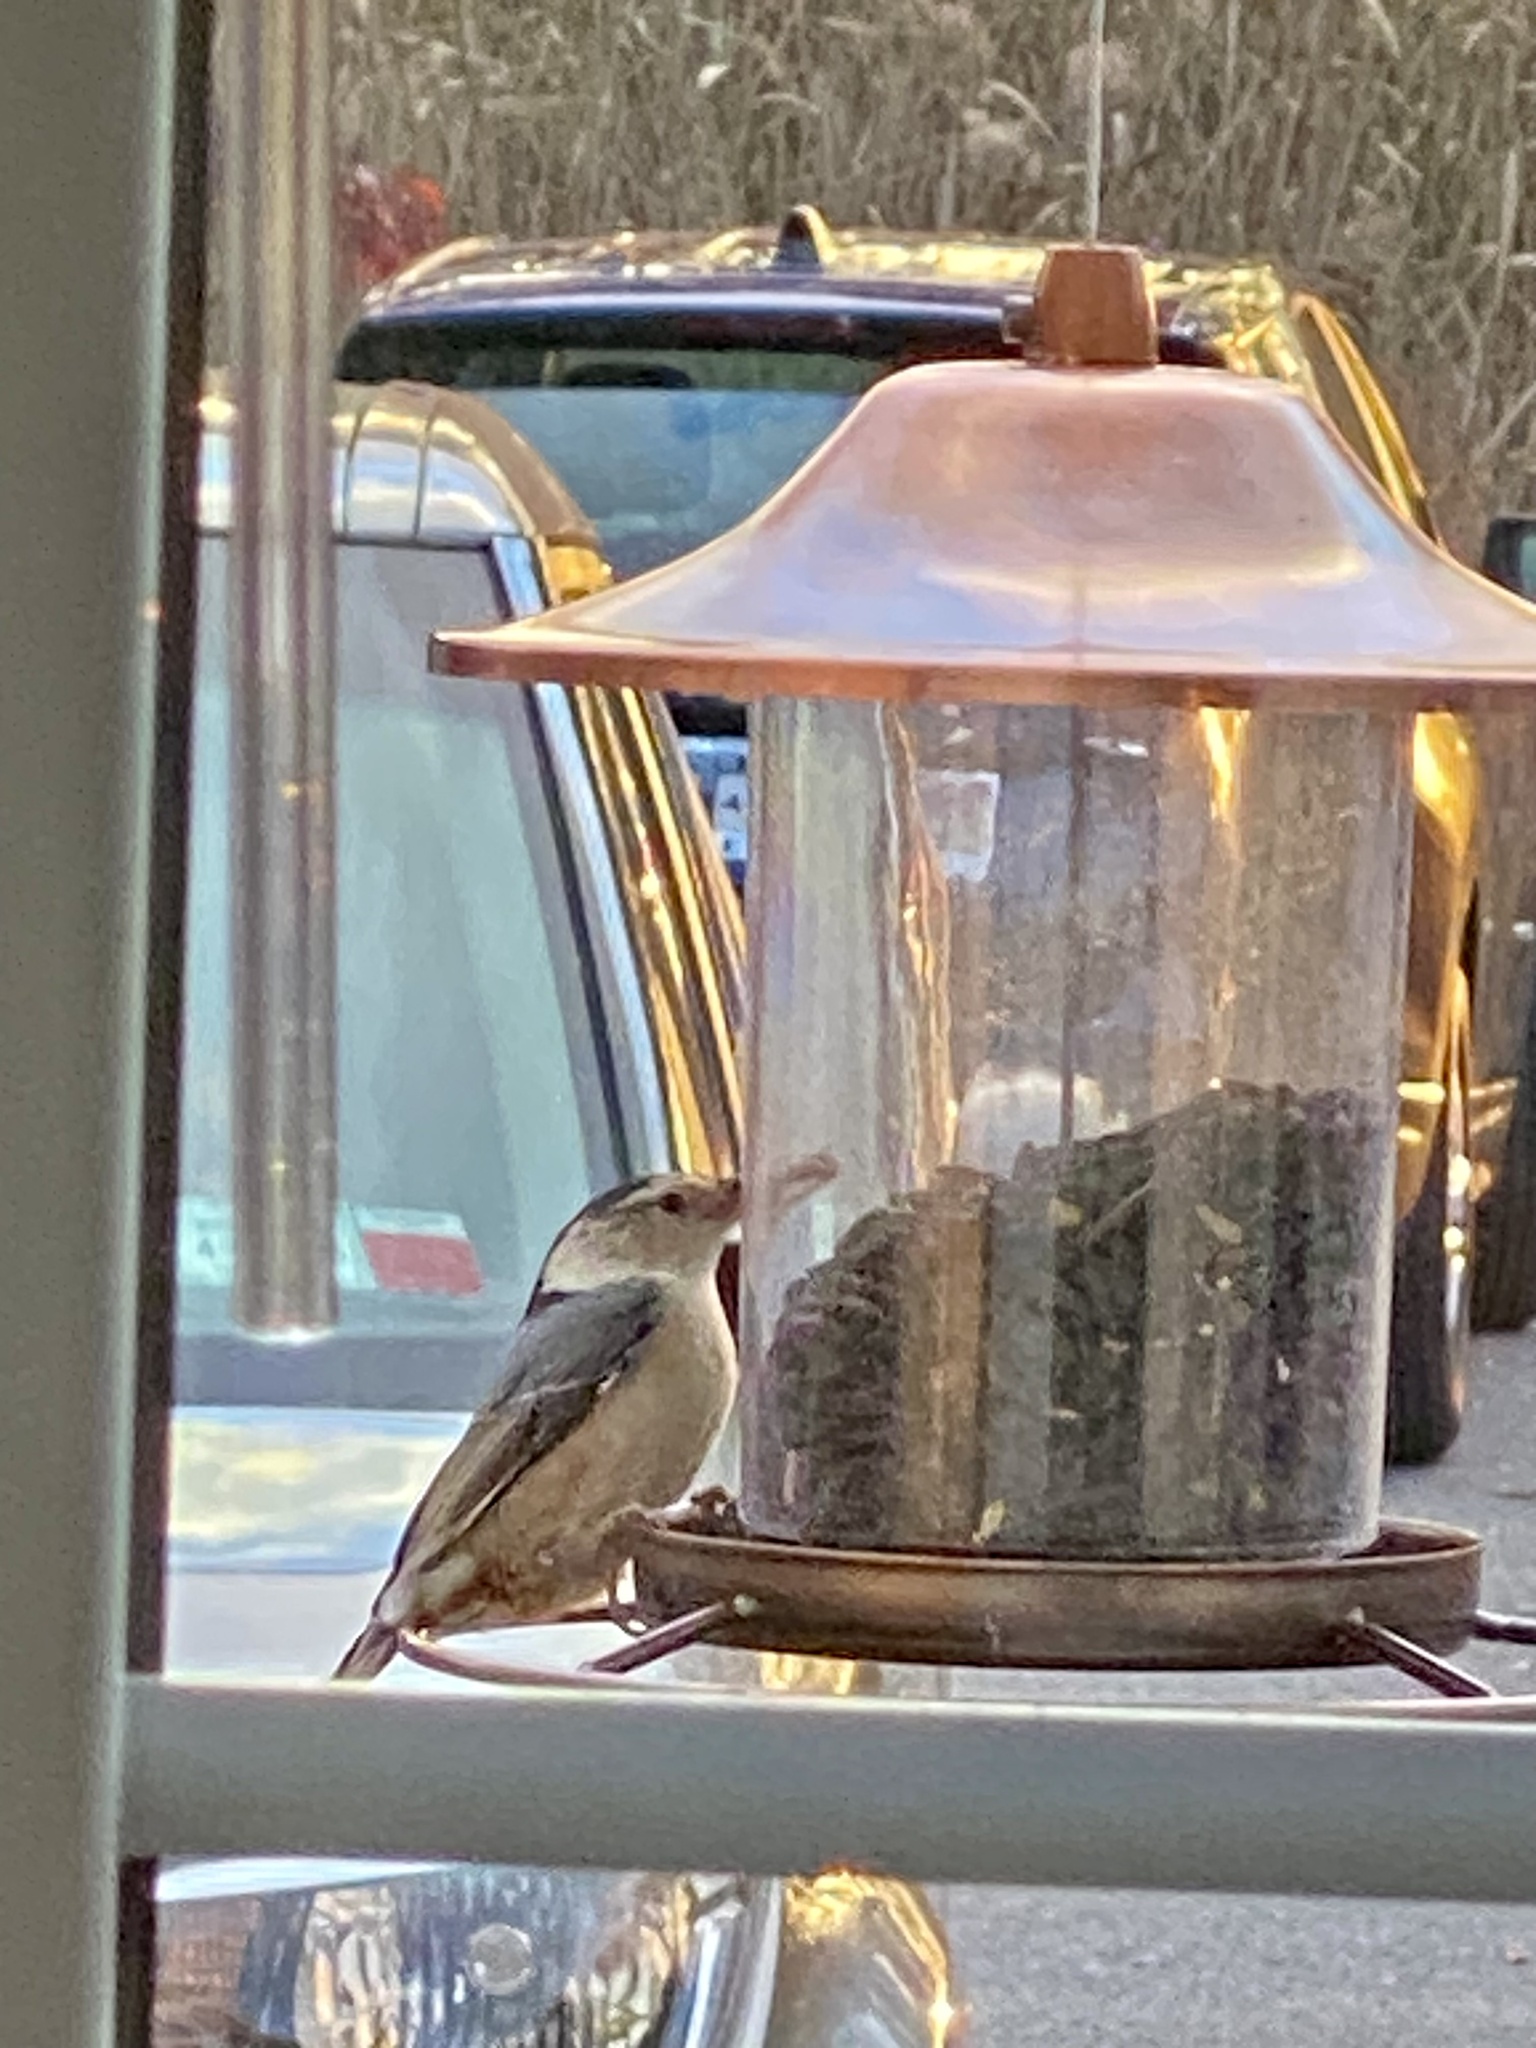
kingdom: Animalia
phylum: Chordata
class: Aves
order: Passeriformes
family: Sittidae
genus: Sitta
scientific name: Sitta carolinensis
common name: White-breasted nuthatch
